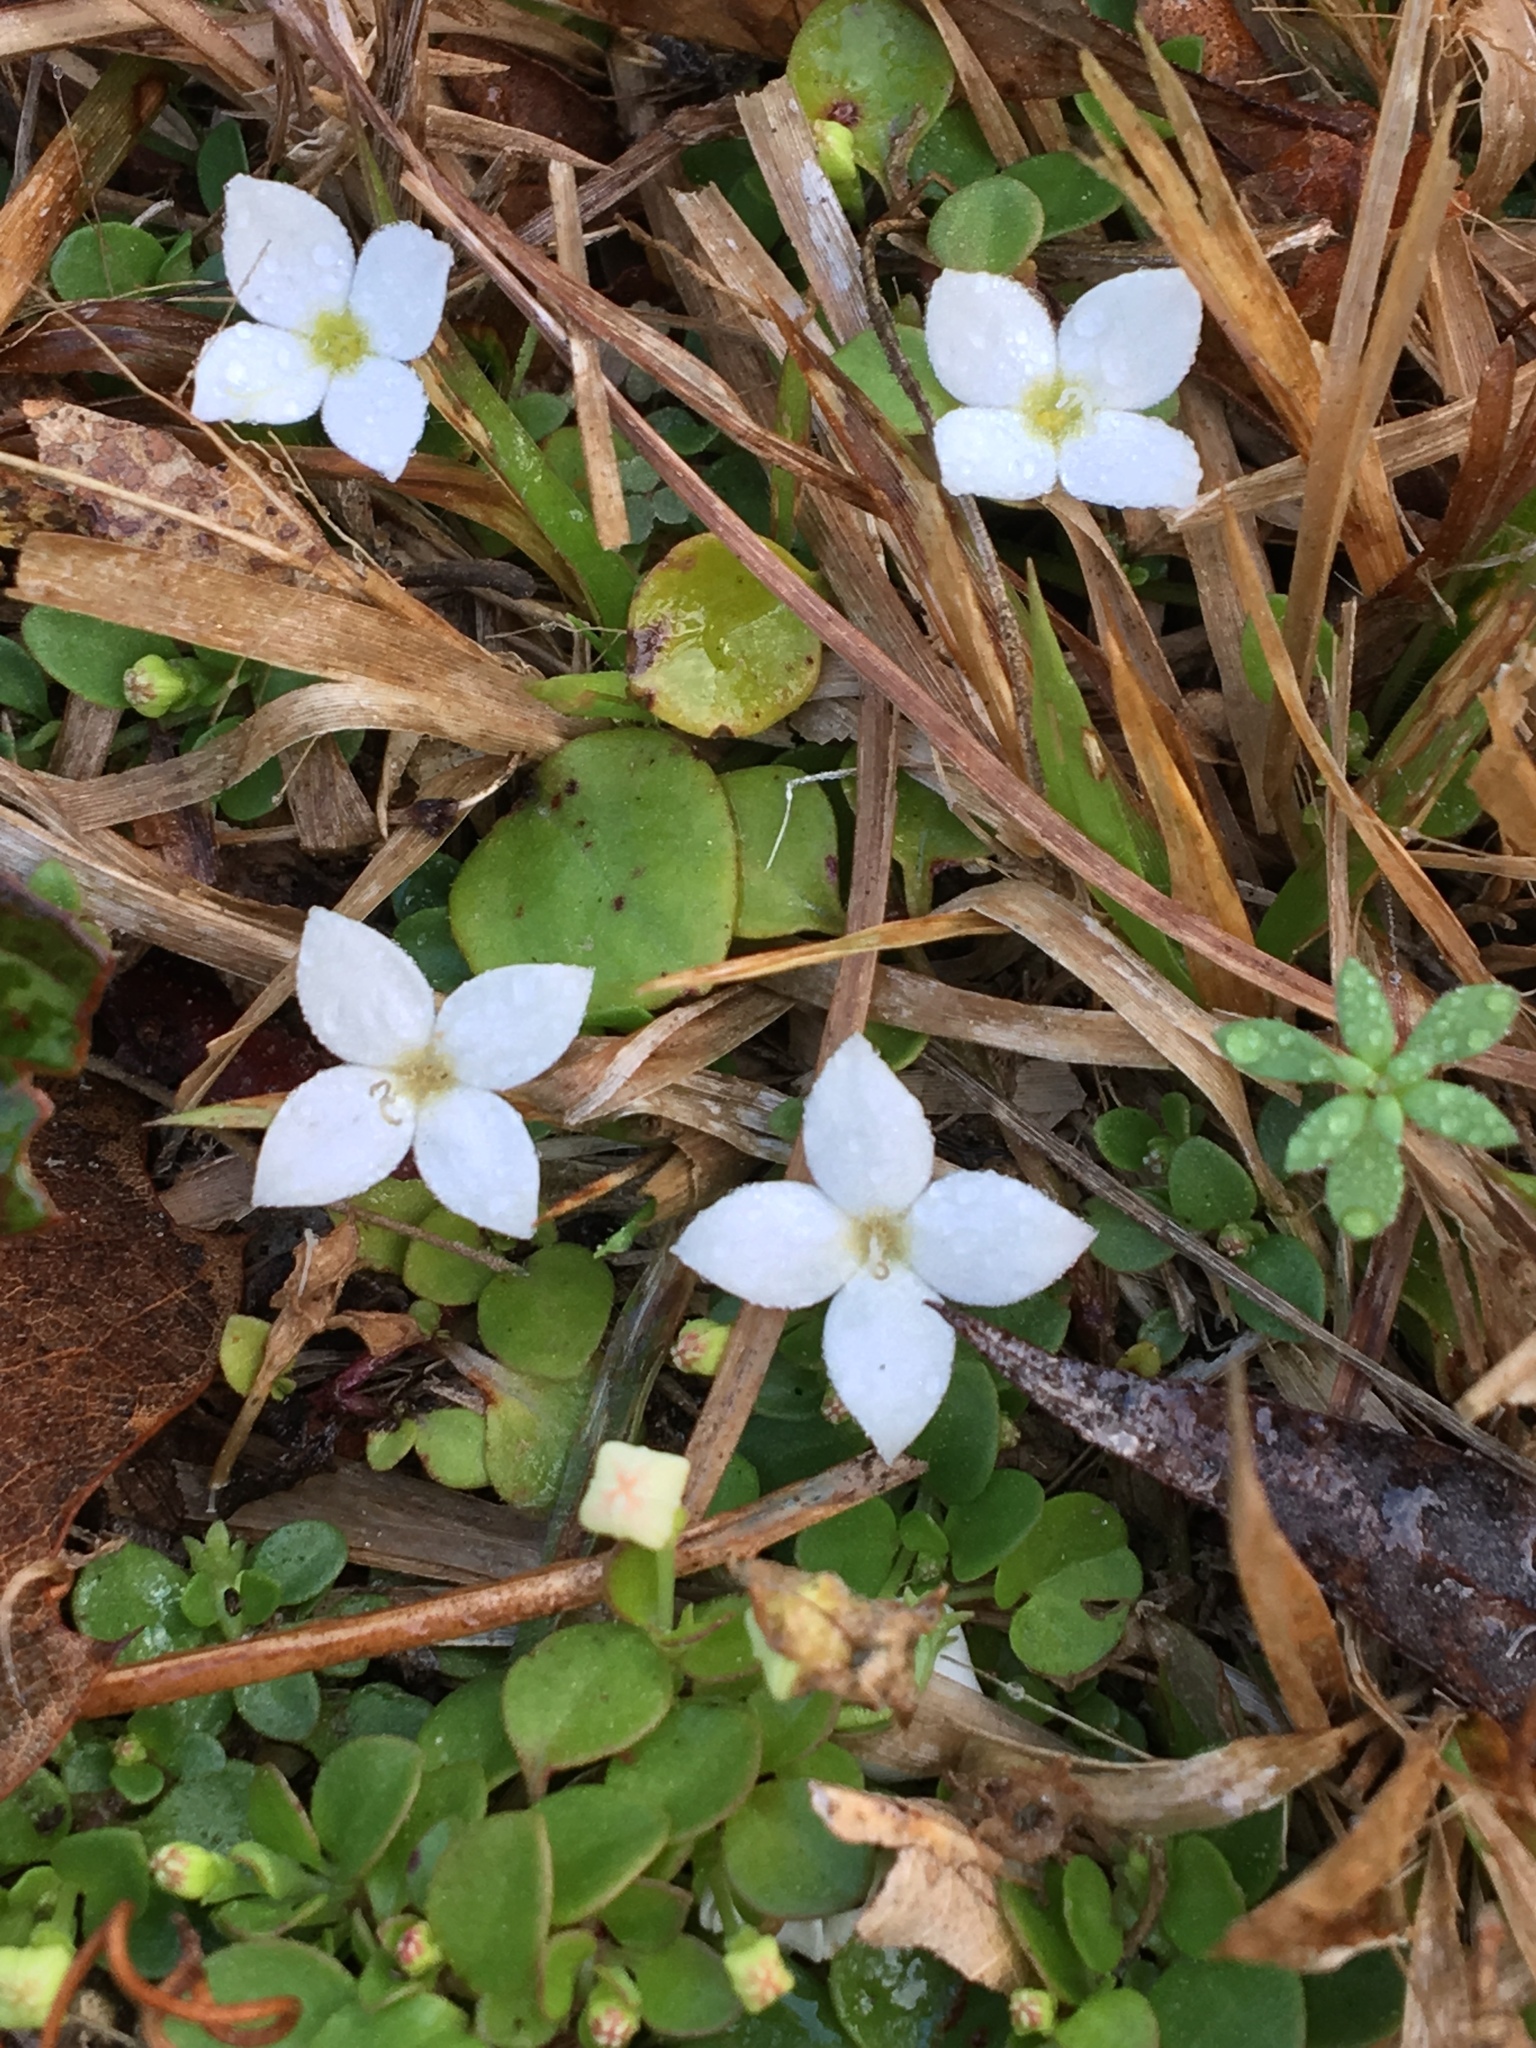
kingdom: Plantae
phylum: Tracheophyta
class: Magnoliopsida
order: Gentianales
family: Rubiaceae
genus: Houstonia
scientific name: Houstonia procumbens
